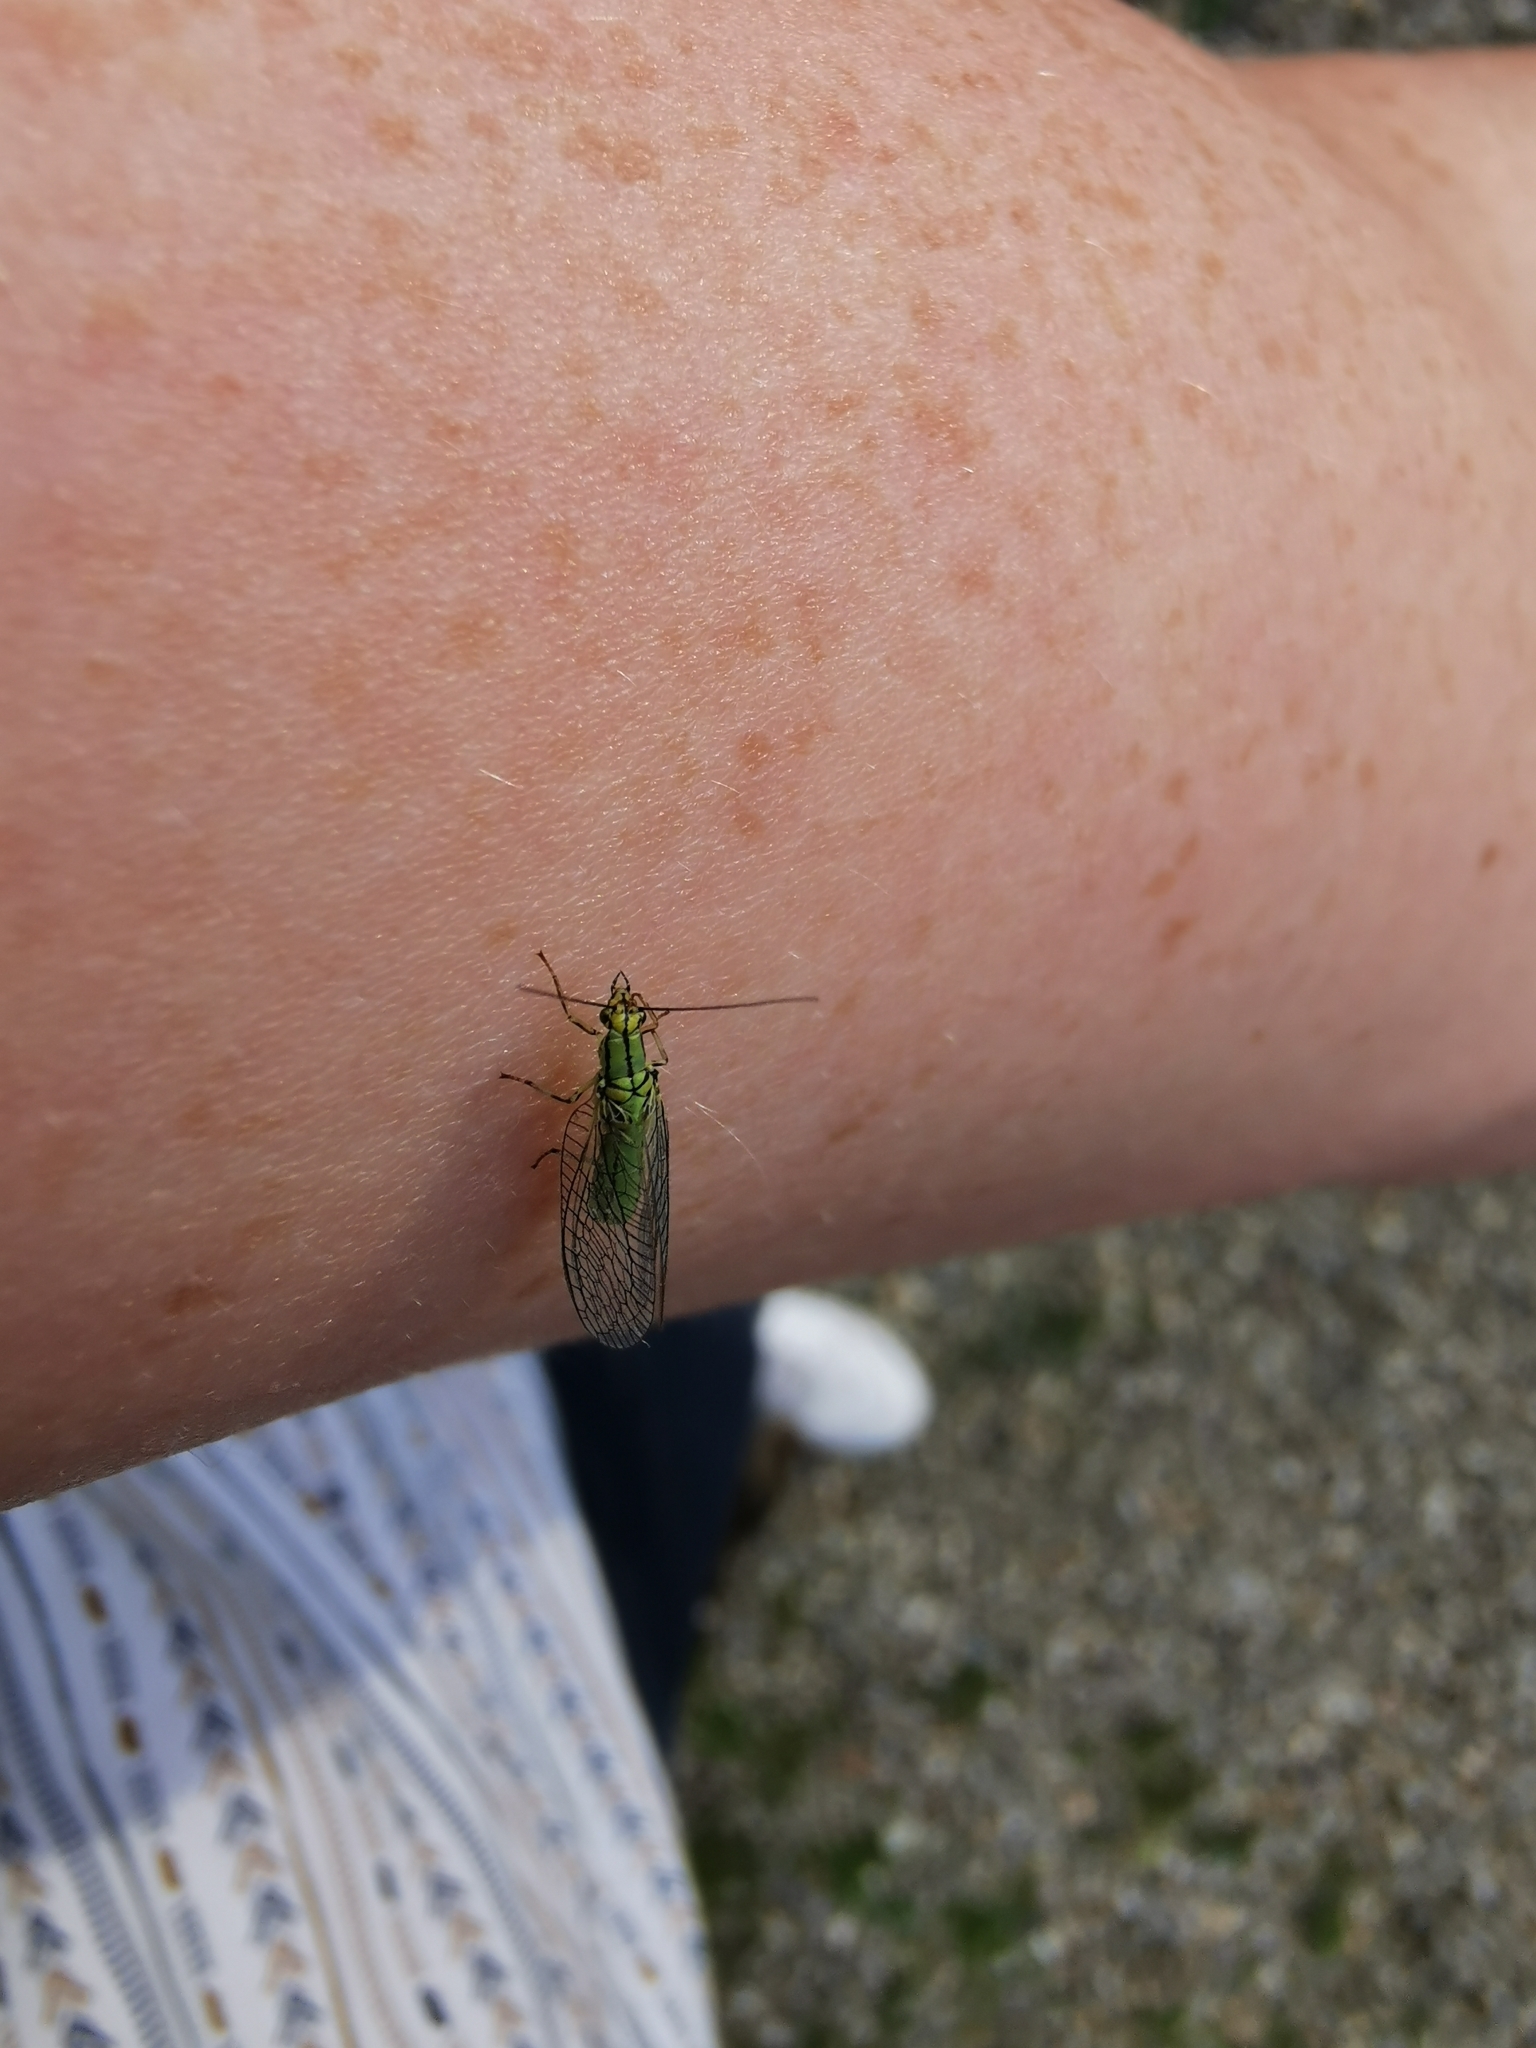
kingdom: Animalia
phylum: Arthropoda
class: Insecta
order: Neuroptera
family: Chrysopidae
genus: Hypochrysa
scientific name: Hypochrysa elegans
